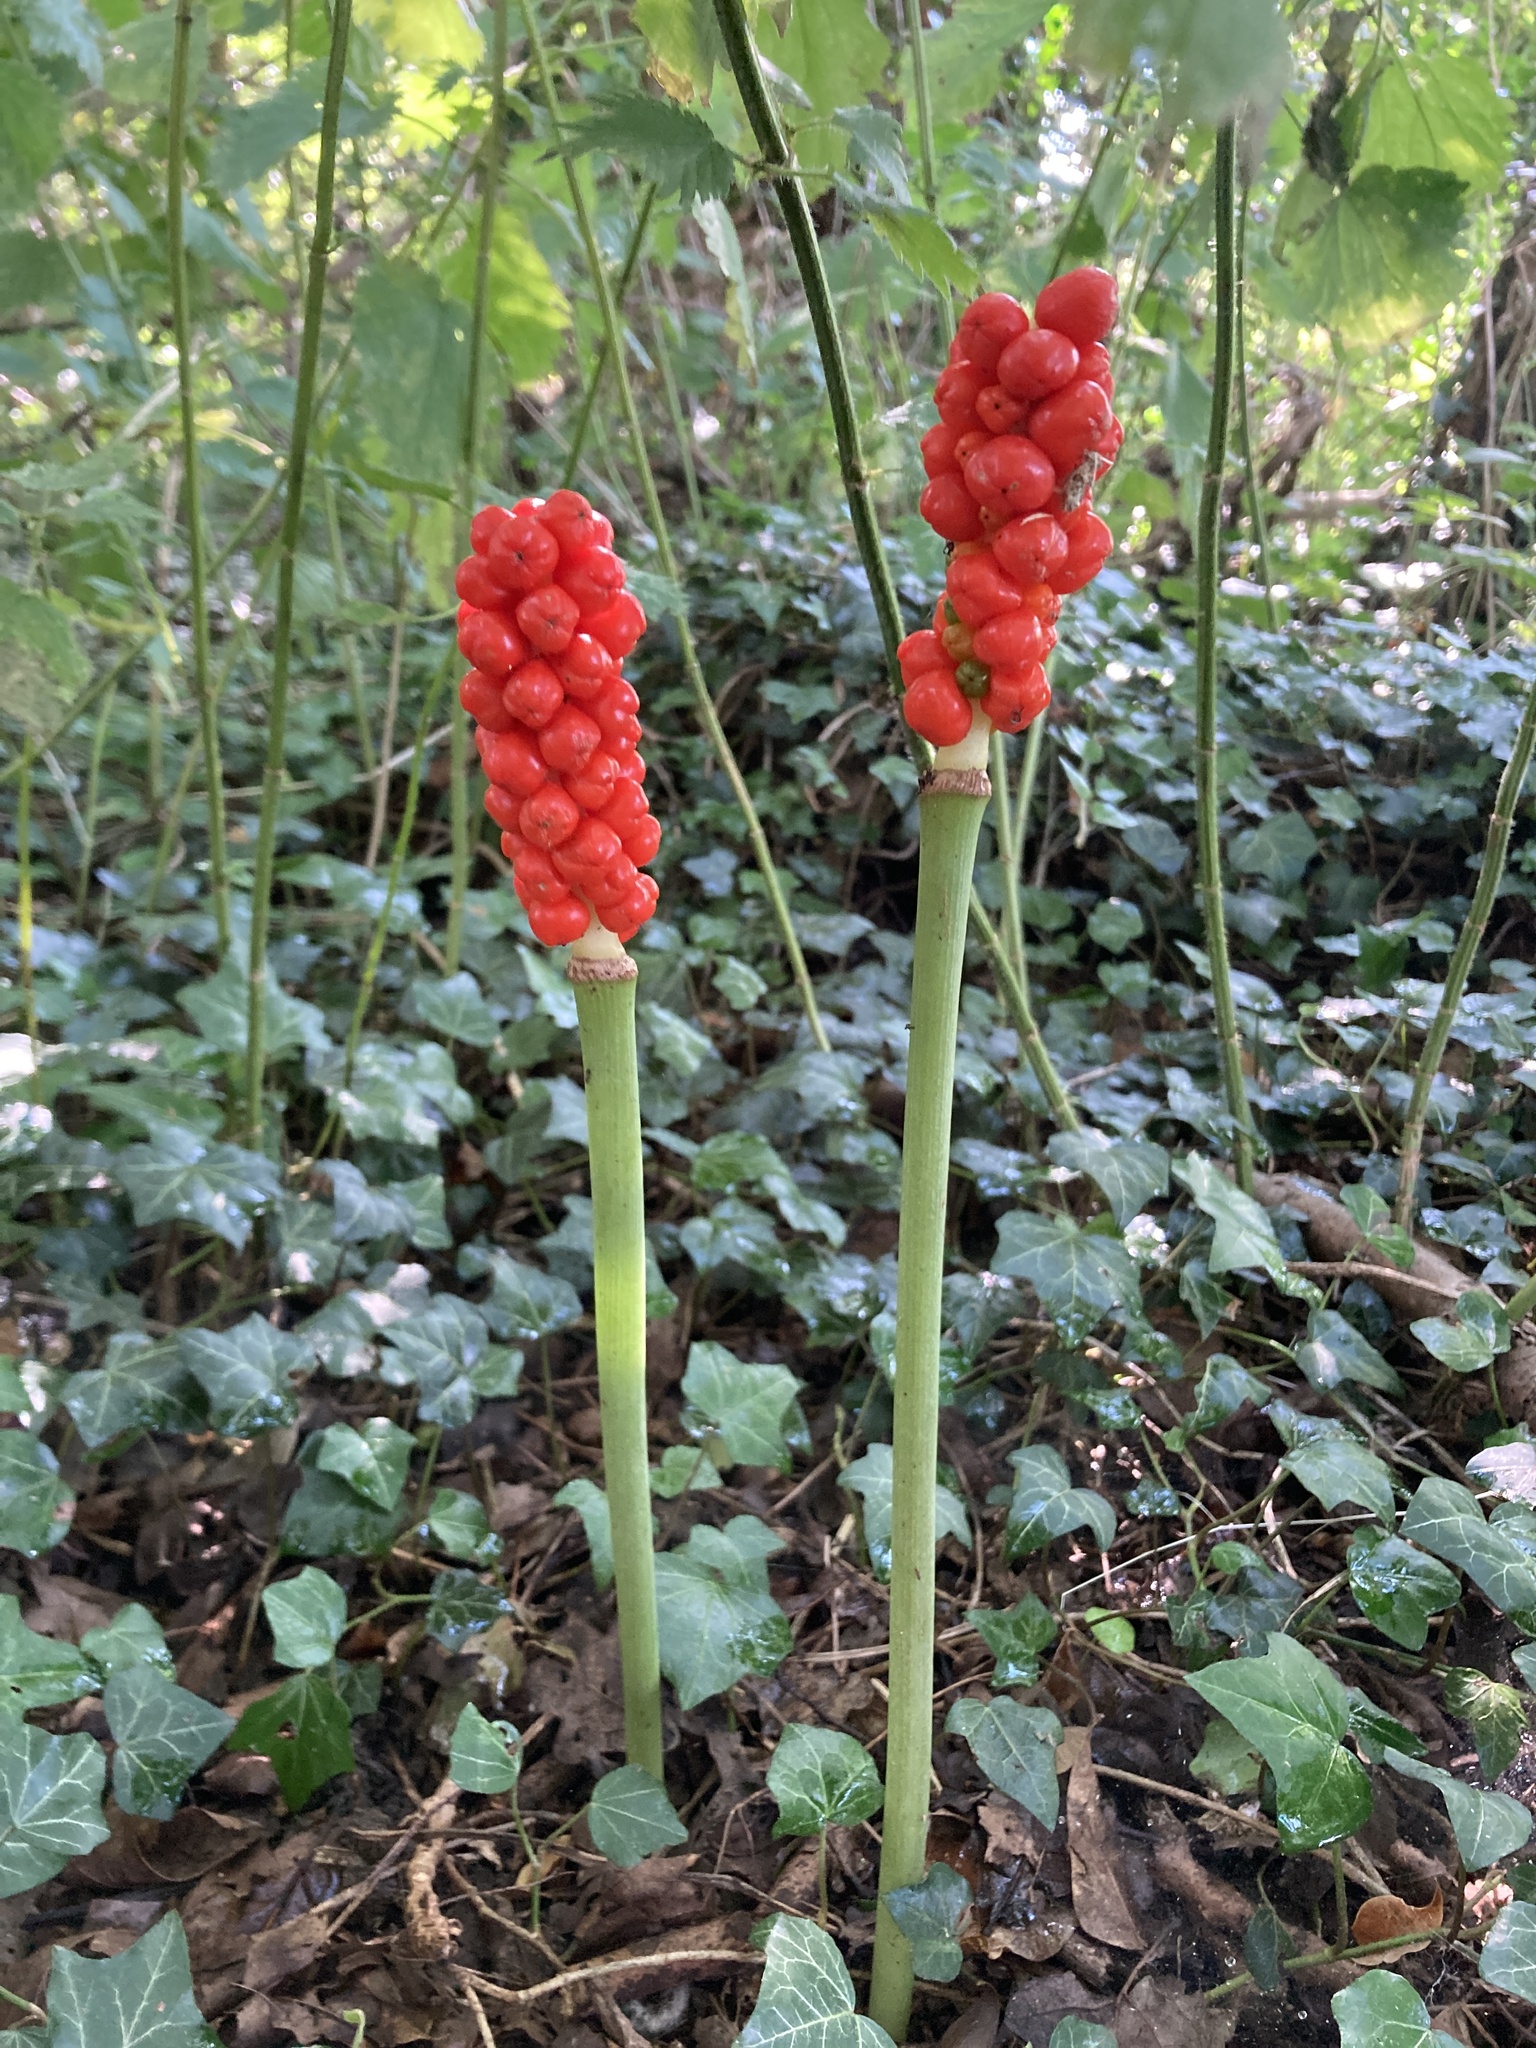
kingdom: Plantae
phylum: Tracheophyta
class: Liliopsida
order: Alismatales
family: Araceae
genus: Arum
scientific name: Arum maculatum
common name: Lords-and-ladies
